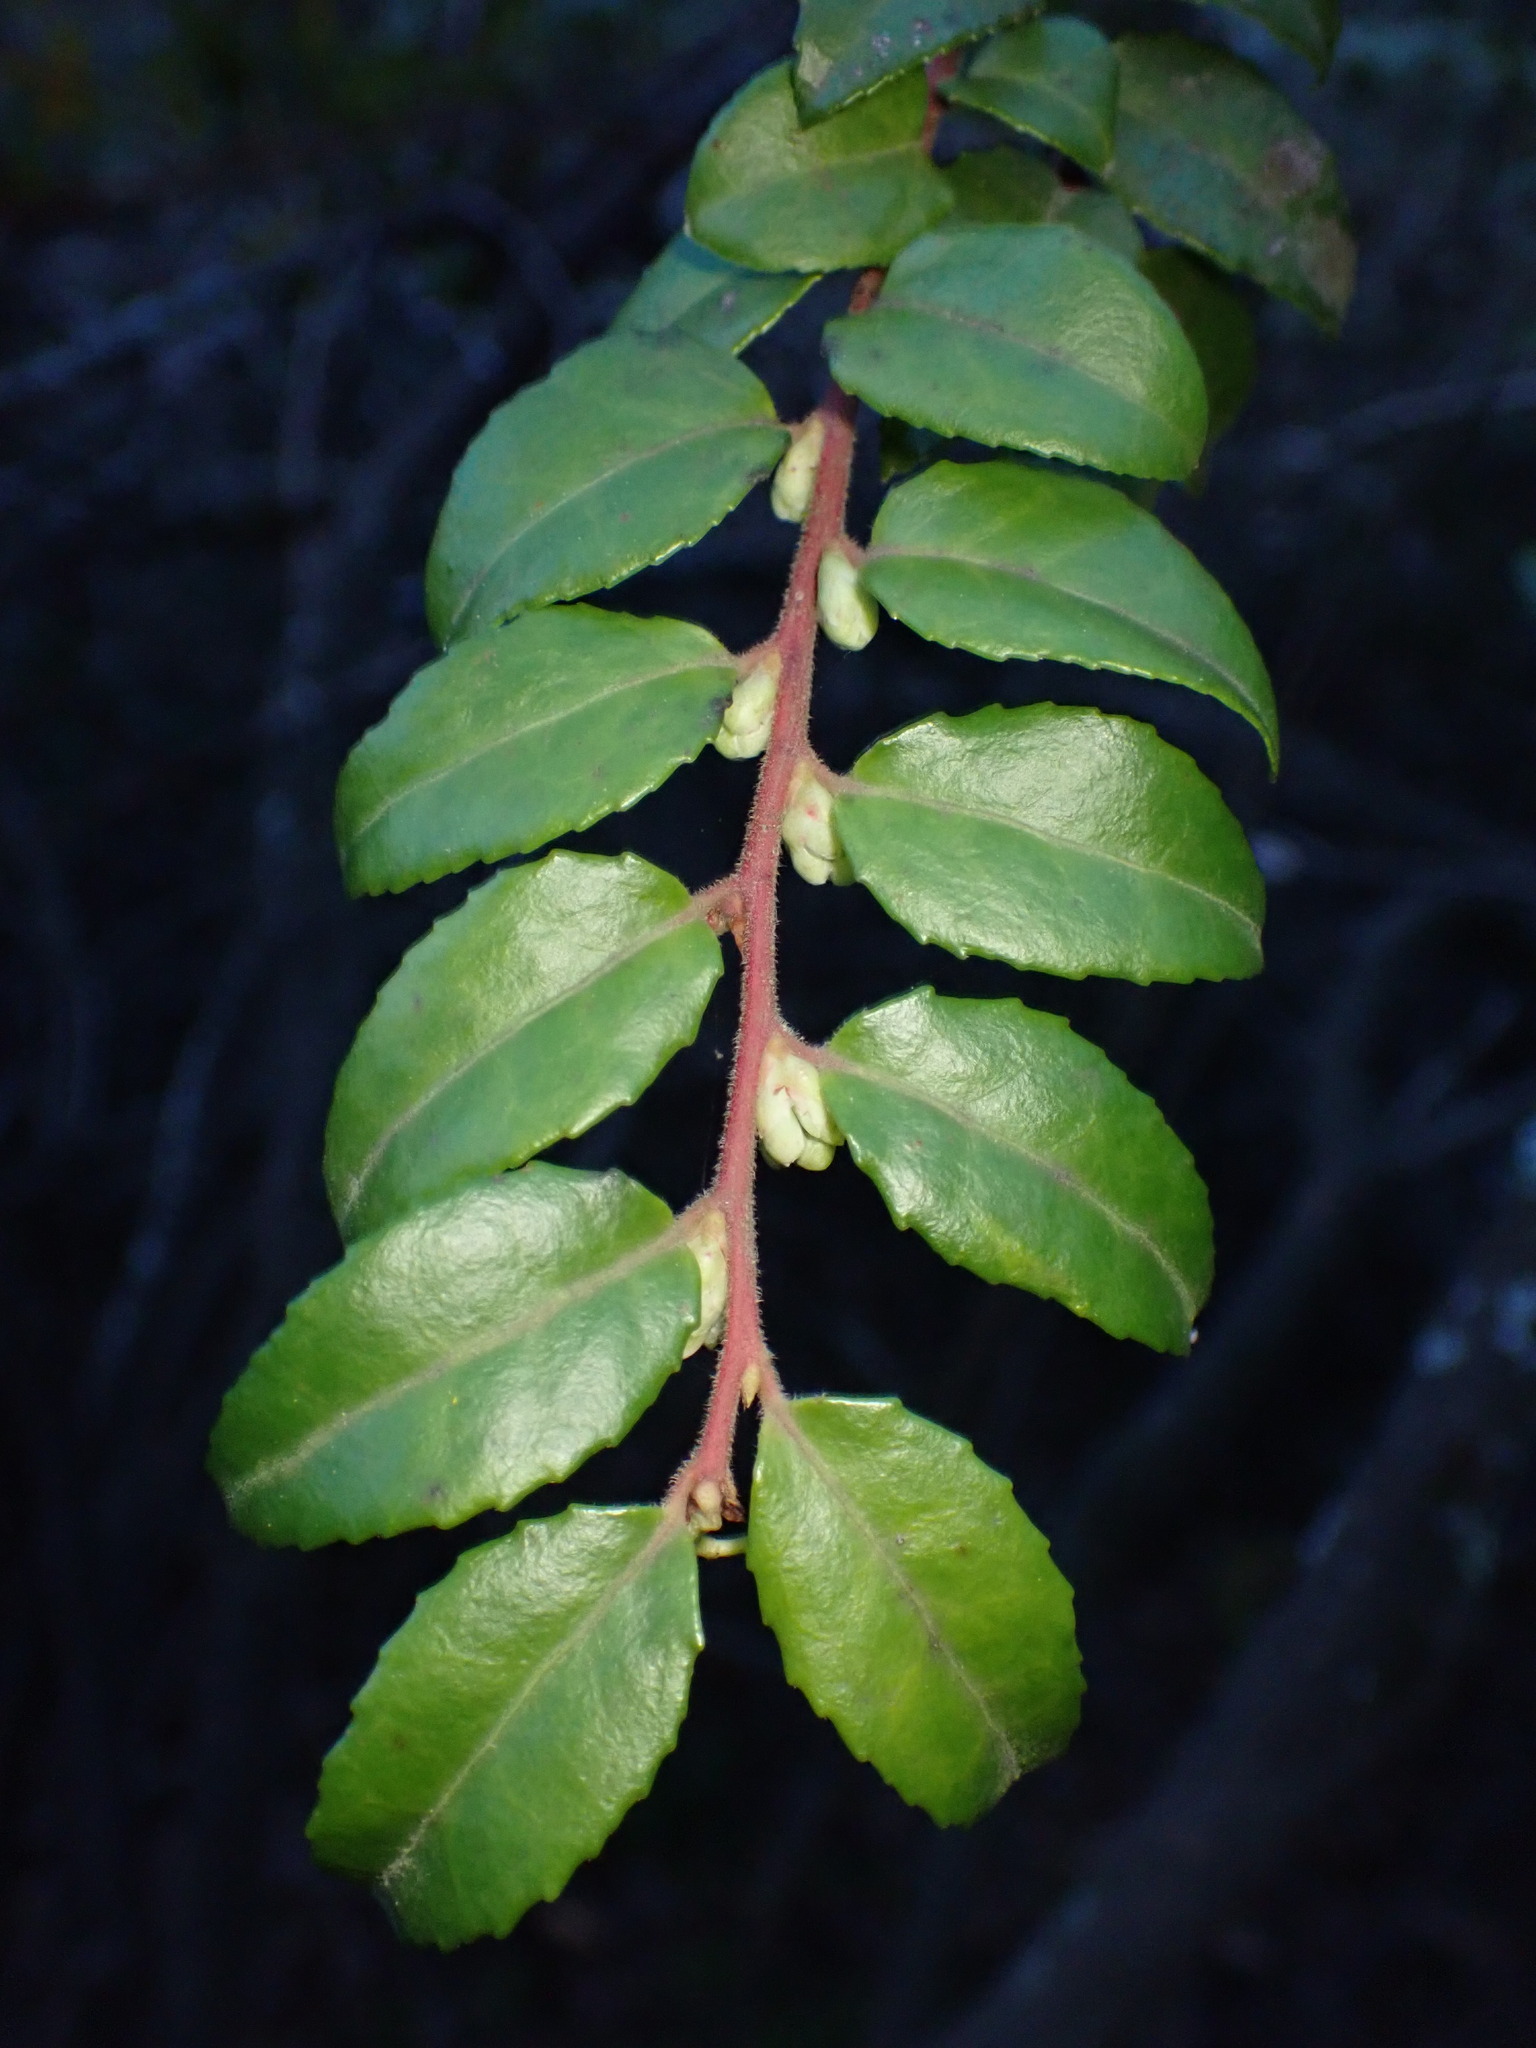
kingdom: Plantae
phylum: Tracheophyta
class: Magnoliopsida
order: Ericales
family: Ericaceae
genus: Vaccinium
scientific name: Vaccinium ovatum
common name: California-huckleberry
